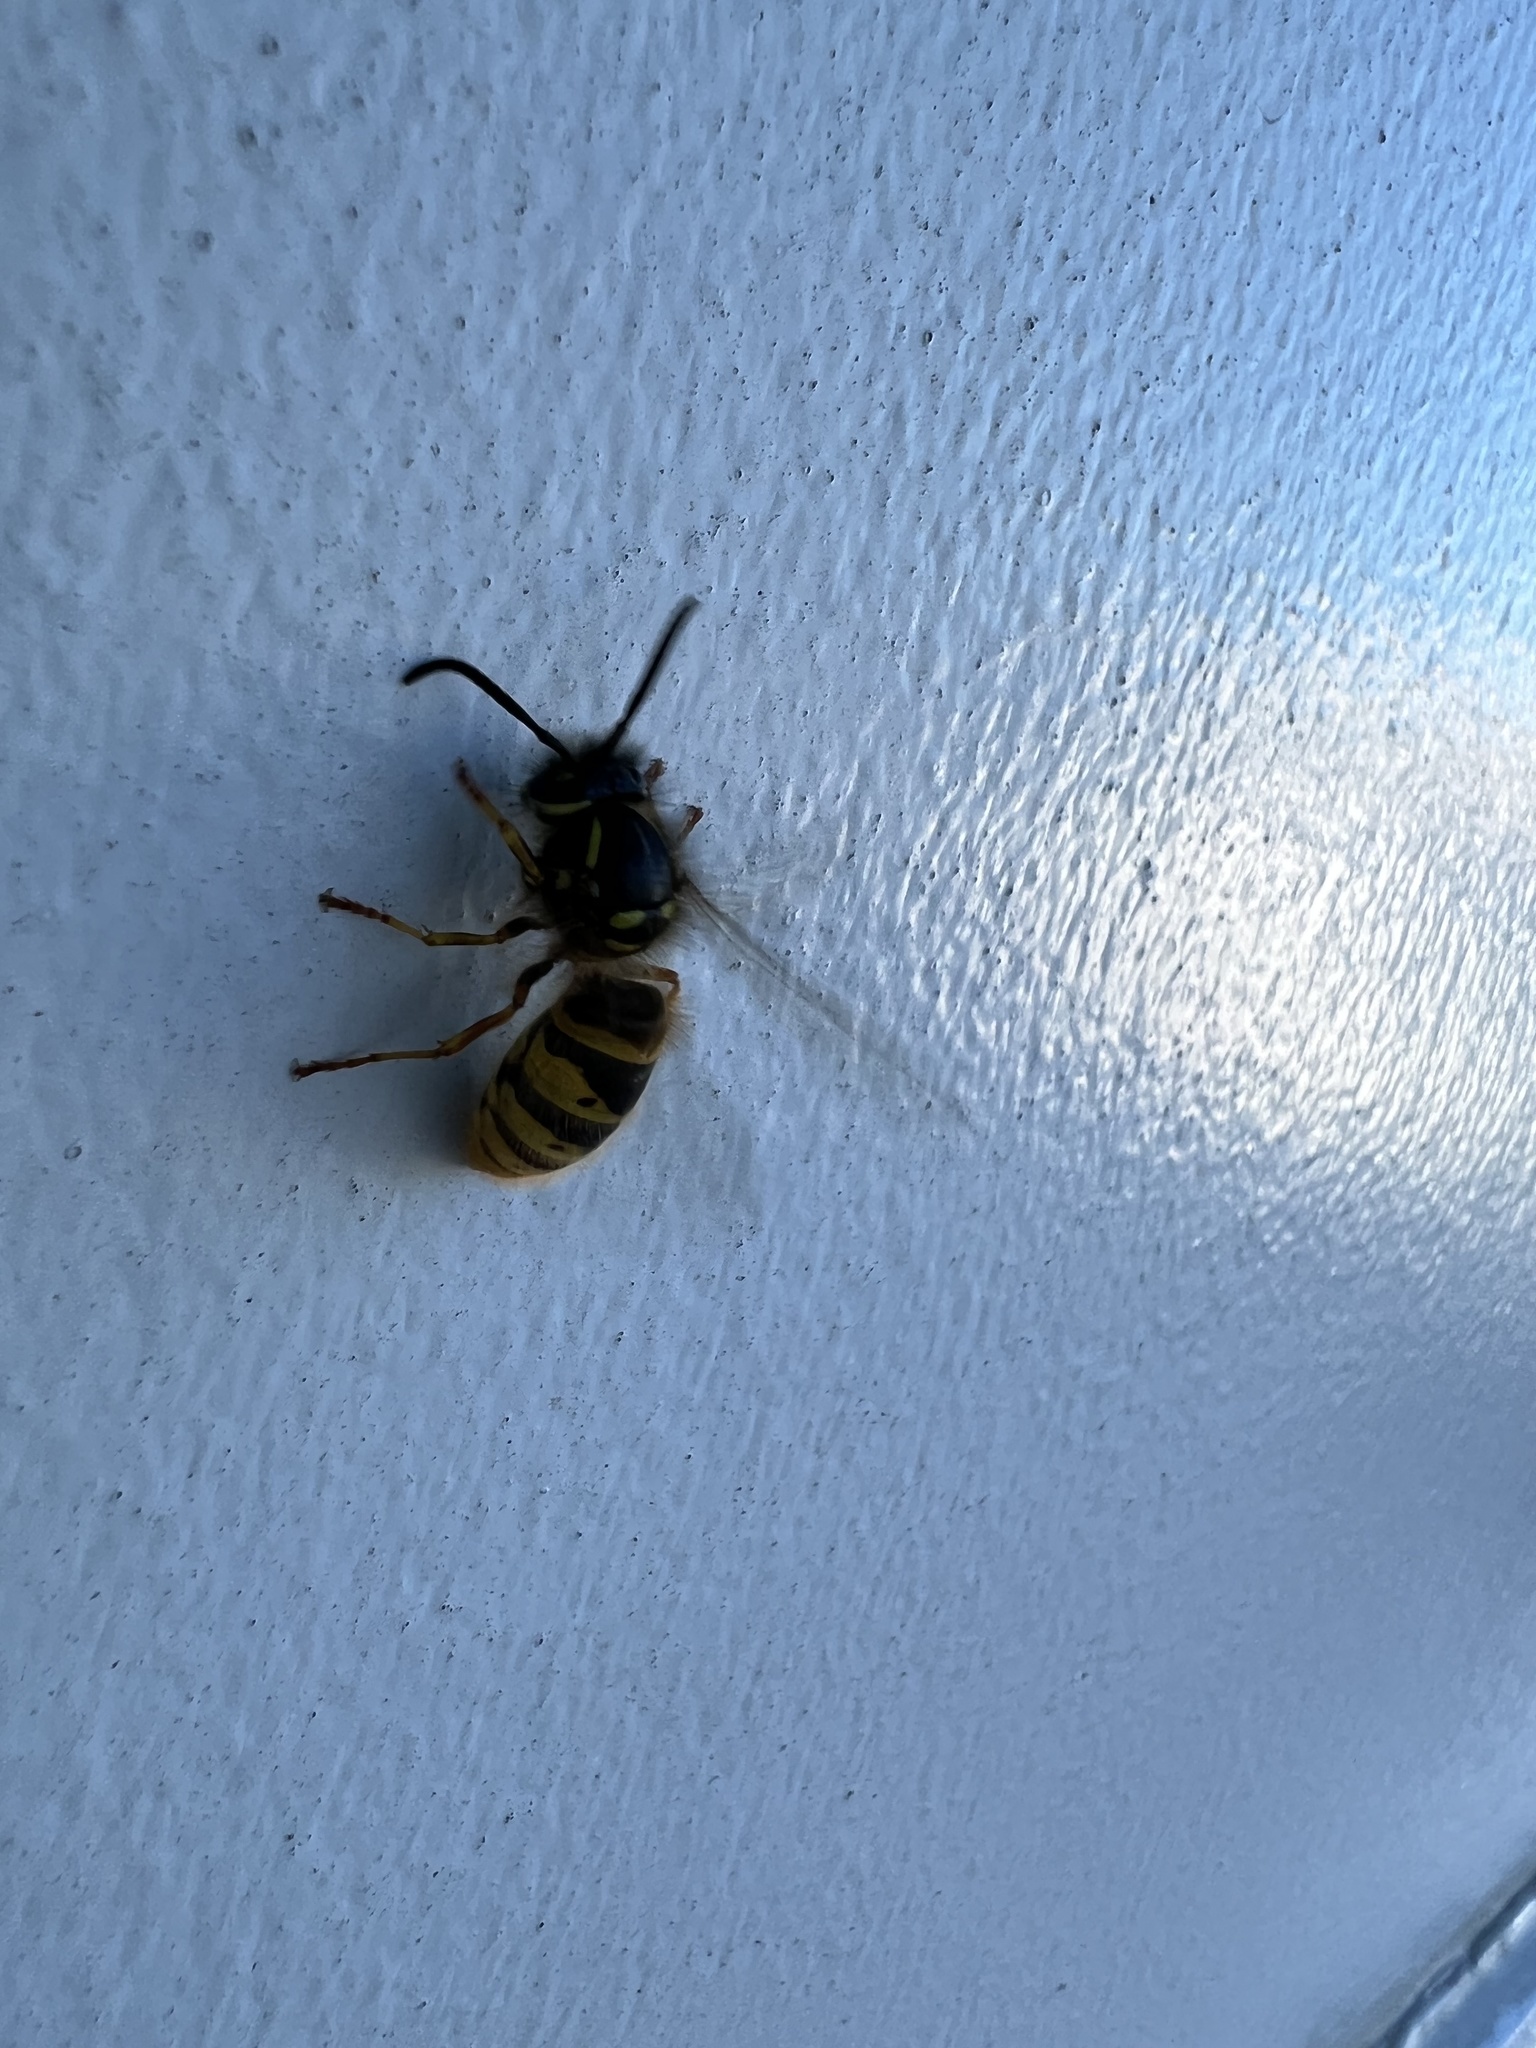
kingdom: Animalia
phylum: Arthropoda
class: Insecta
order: Hymenoptera
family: Vespidae
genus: Vespula
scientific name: Vespula vulgaris
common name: Common wasp
